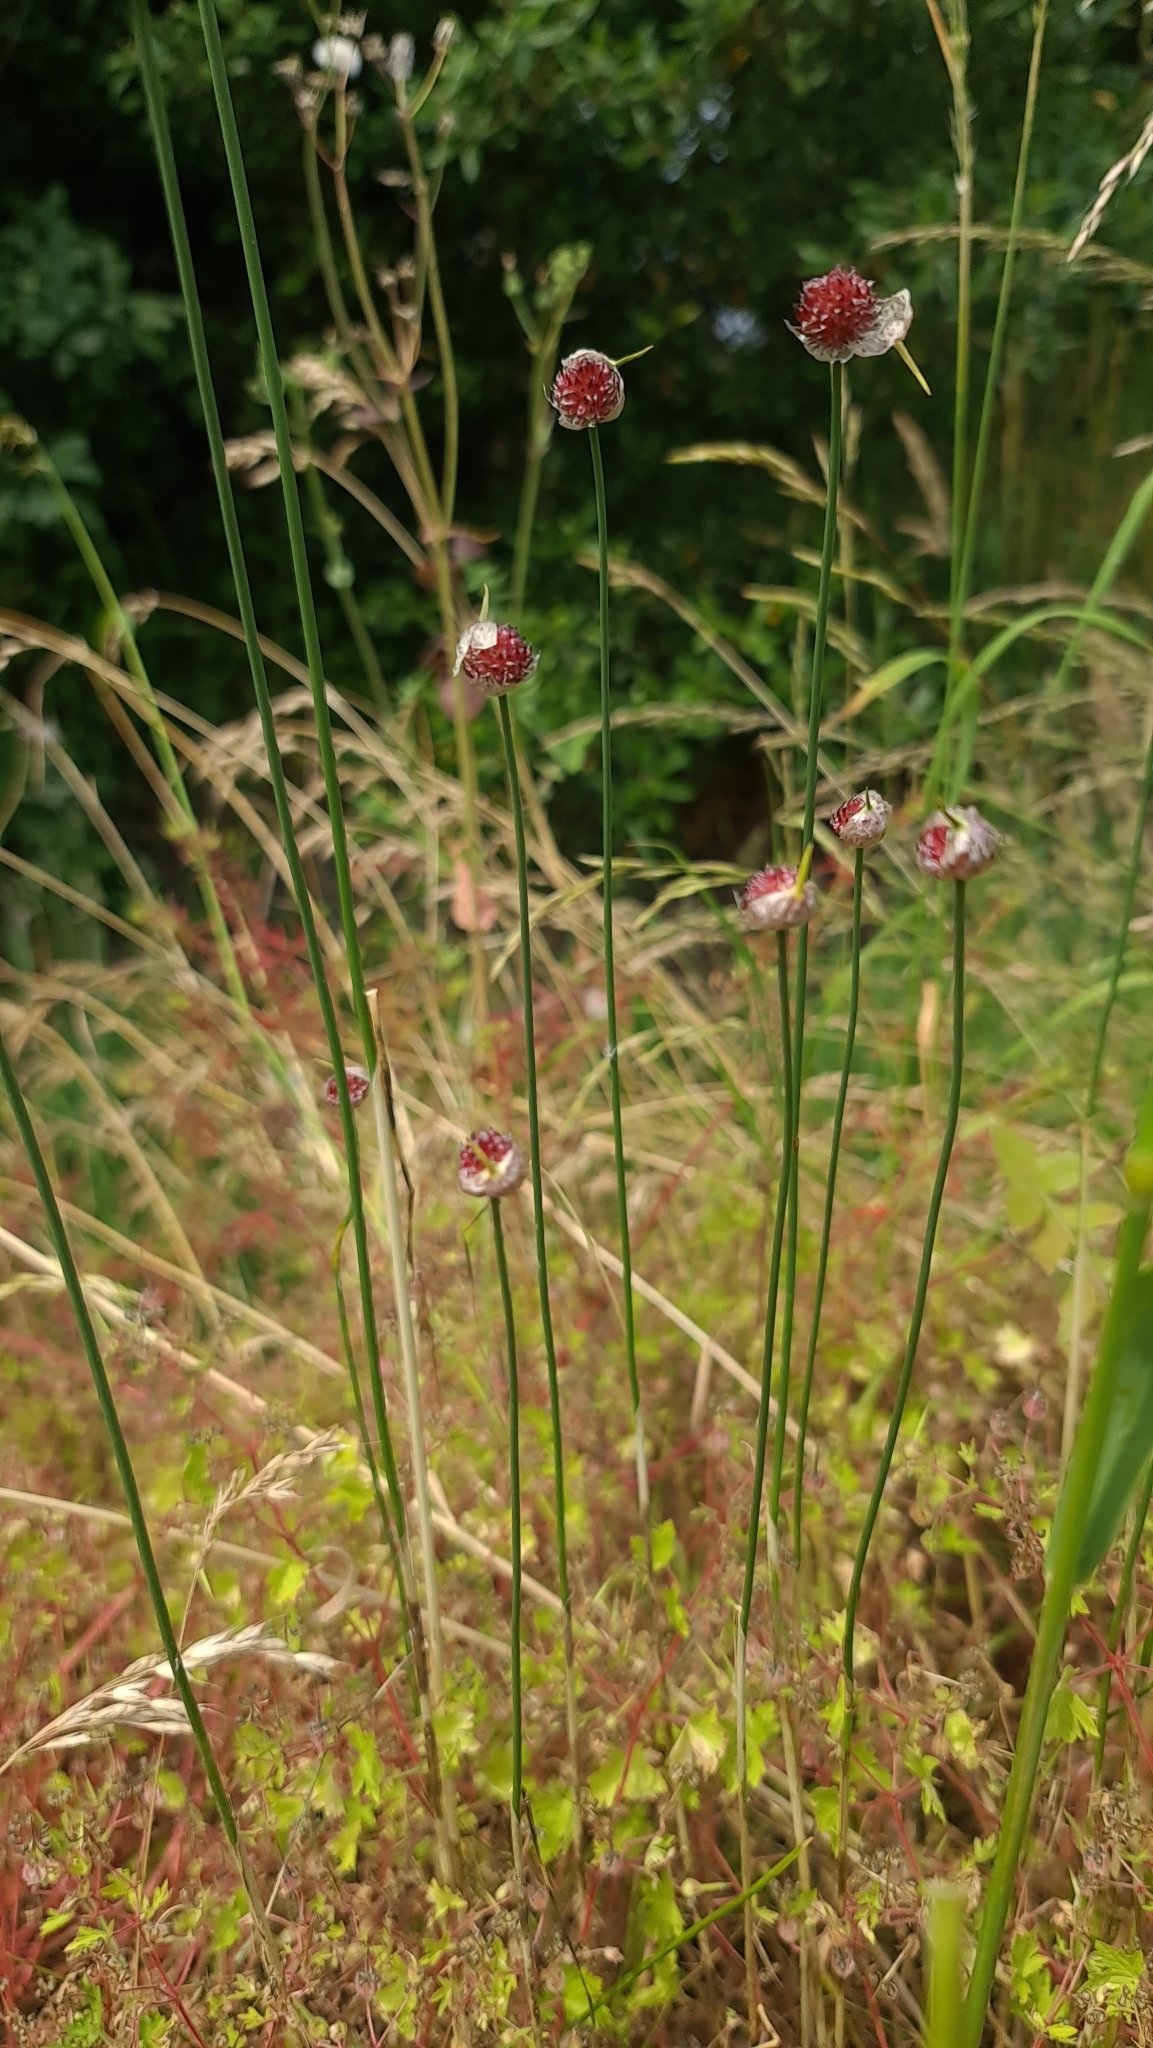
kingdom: Plantae
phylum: Tracheophyta
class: Liliopsida
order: Asparagales
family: Amaryllidaceae
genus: Allium
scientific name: Allium vineale
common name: Crow garlic
